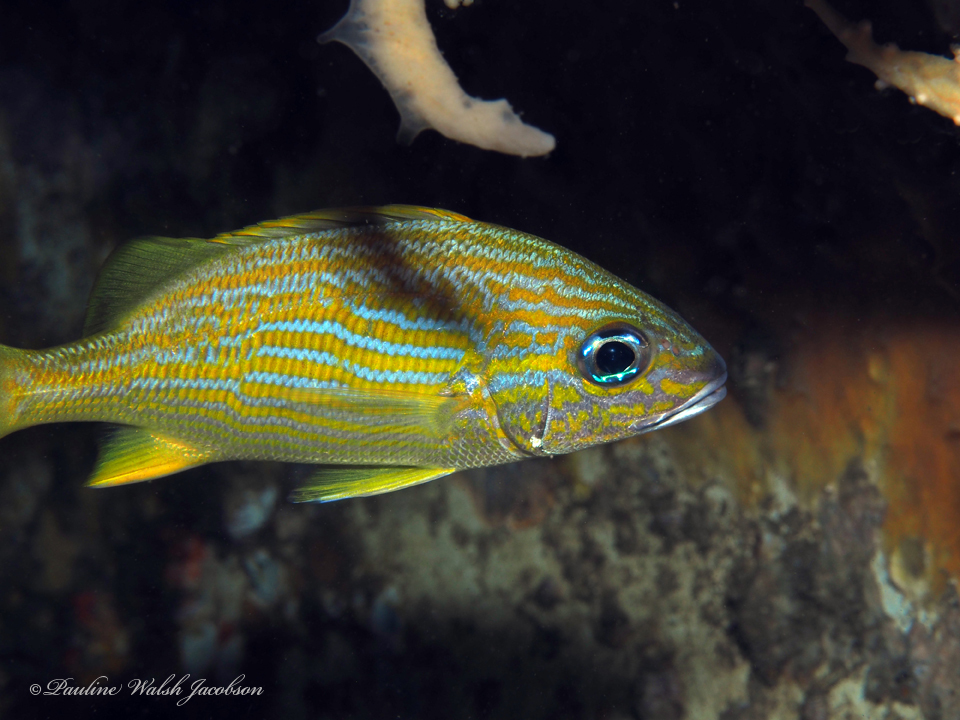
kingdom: Animalia
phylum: Chordata
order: Perciformes
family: Haemulidae
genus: Haemulon
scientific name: Haemulon flavolineatum
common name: French grunt
